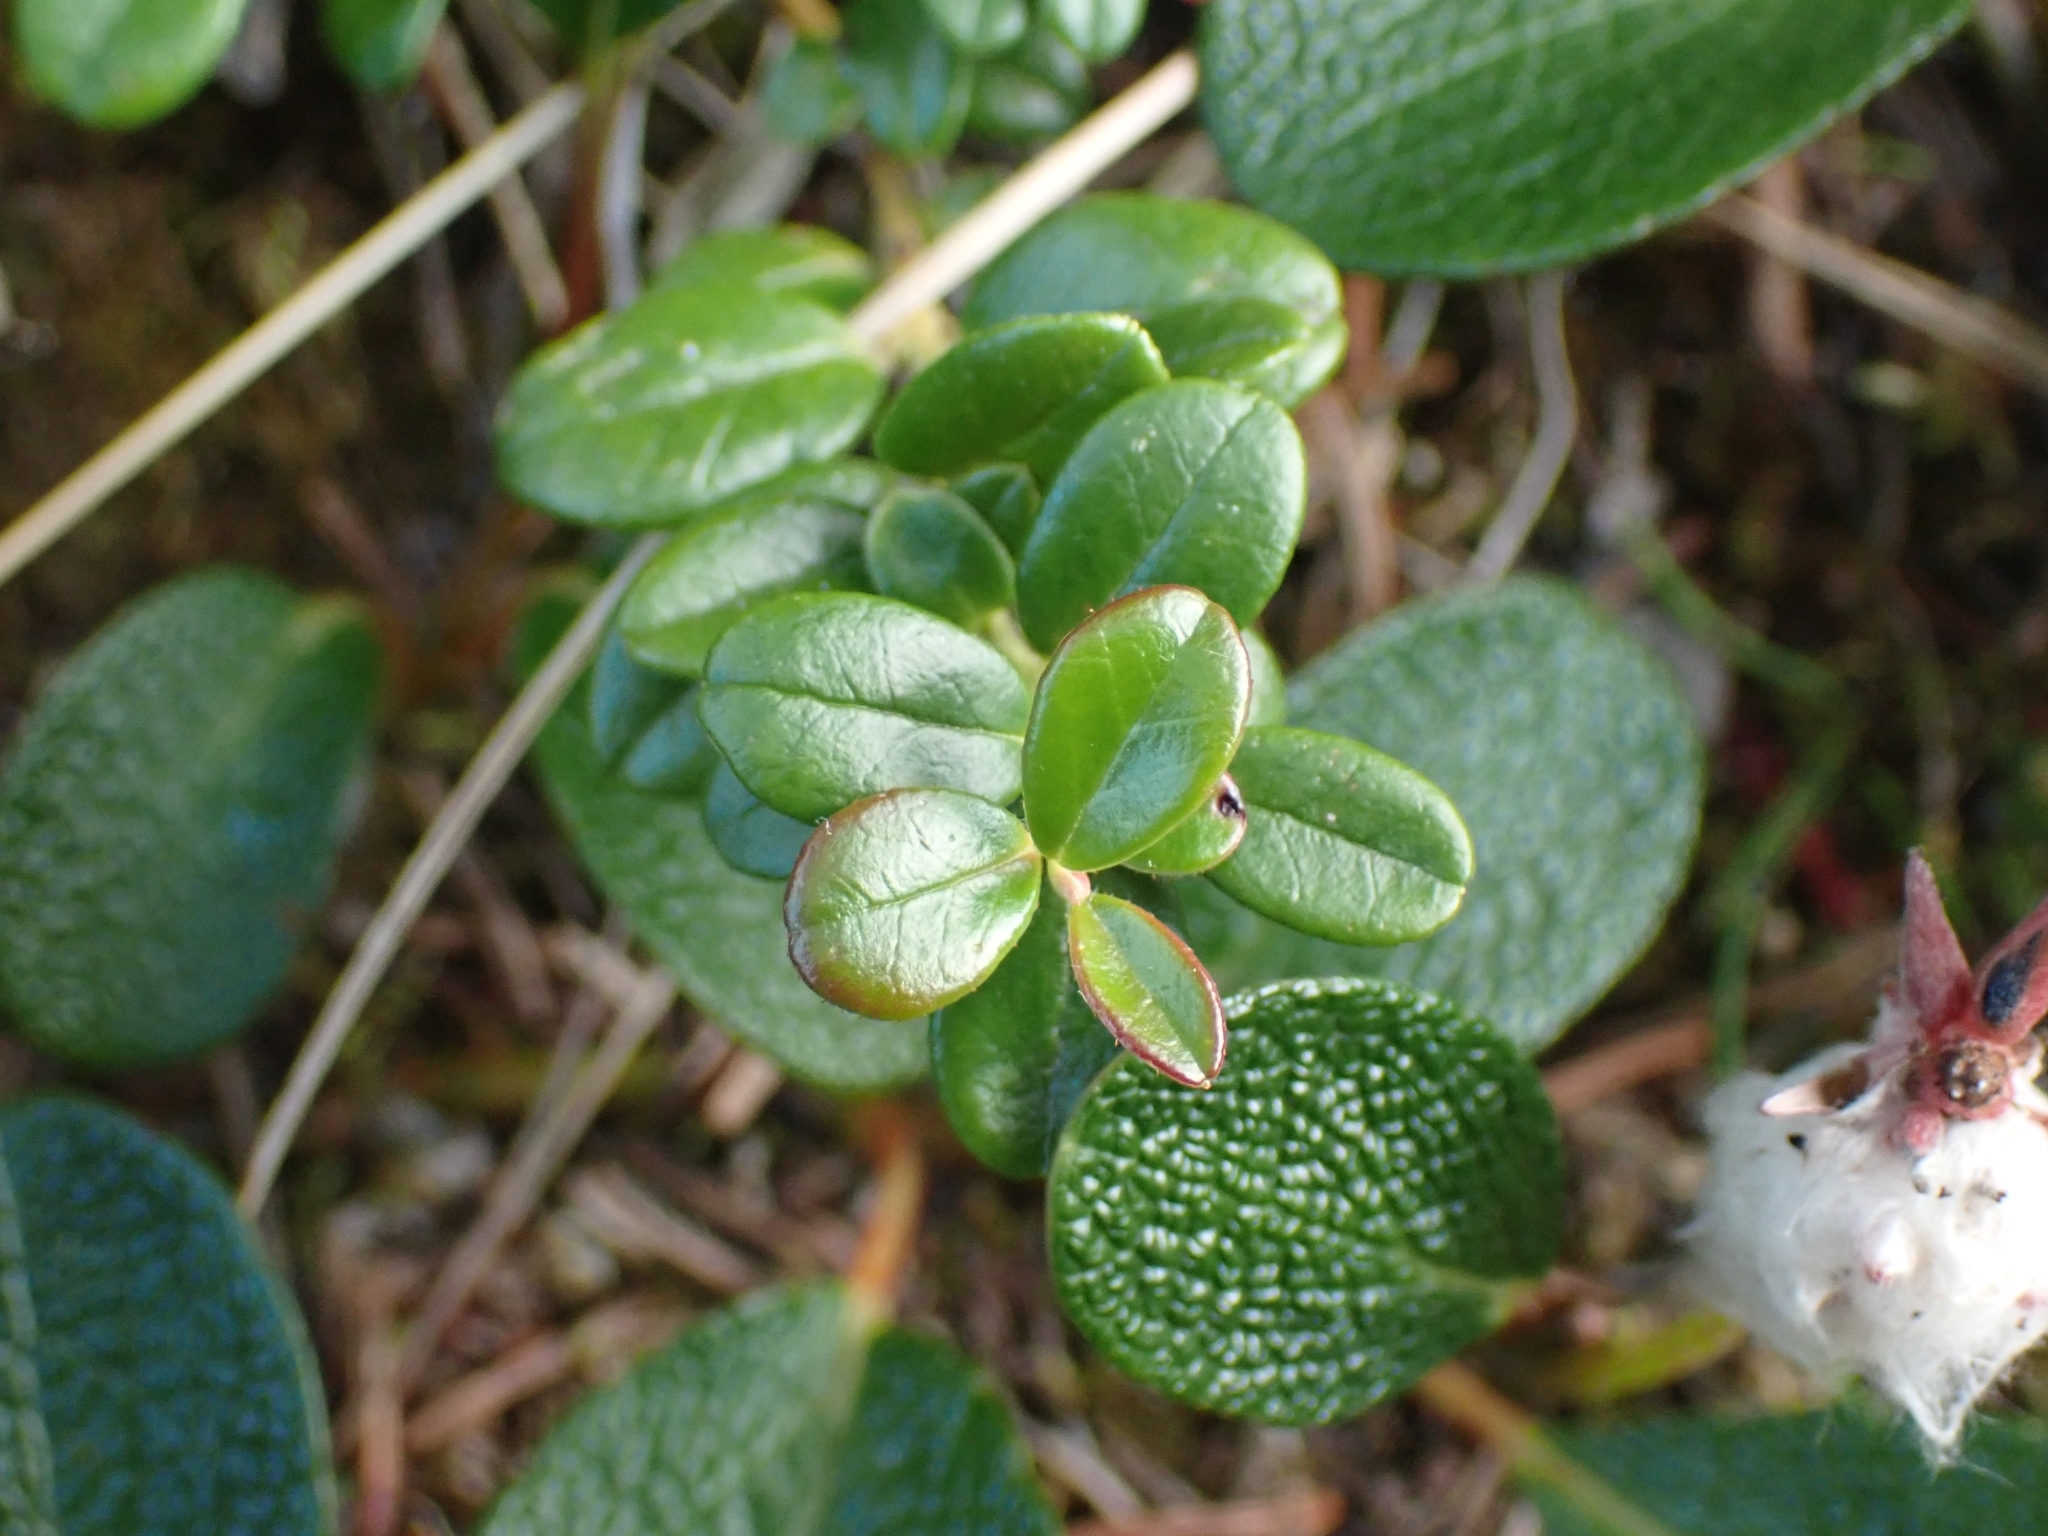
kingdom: Plantae
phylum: Tracheophyta
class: Magnoliopsida
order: Ericales
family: Ericaceae
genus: Vaccinium
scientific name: Vaccinium vitis-idaea
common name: Cowberry
